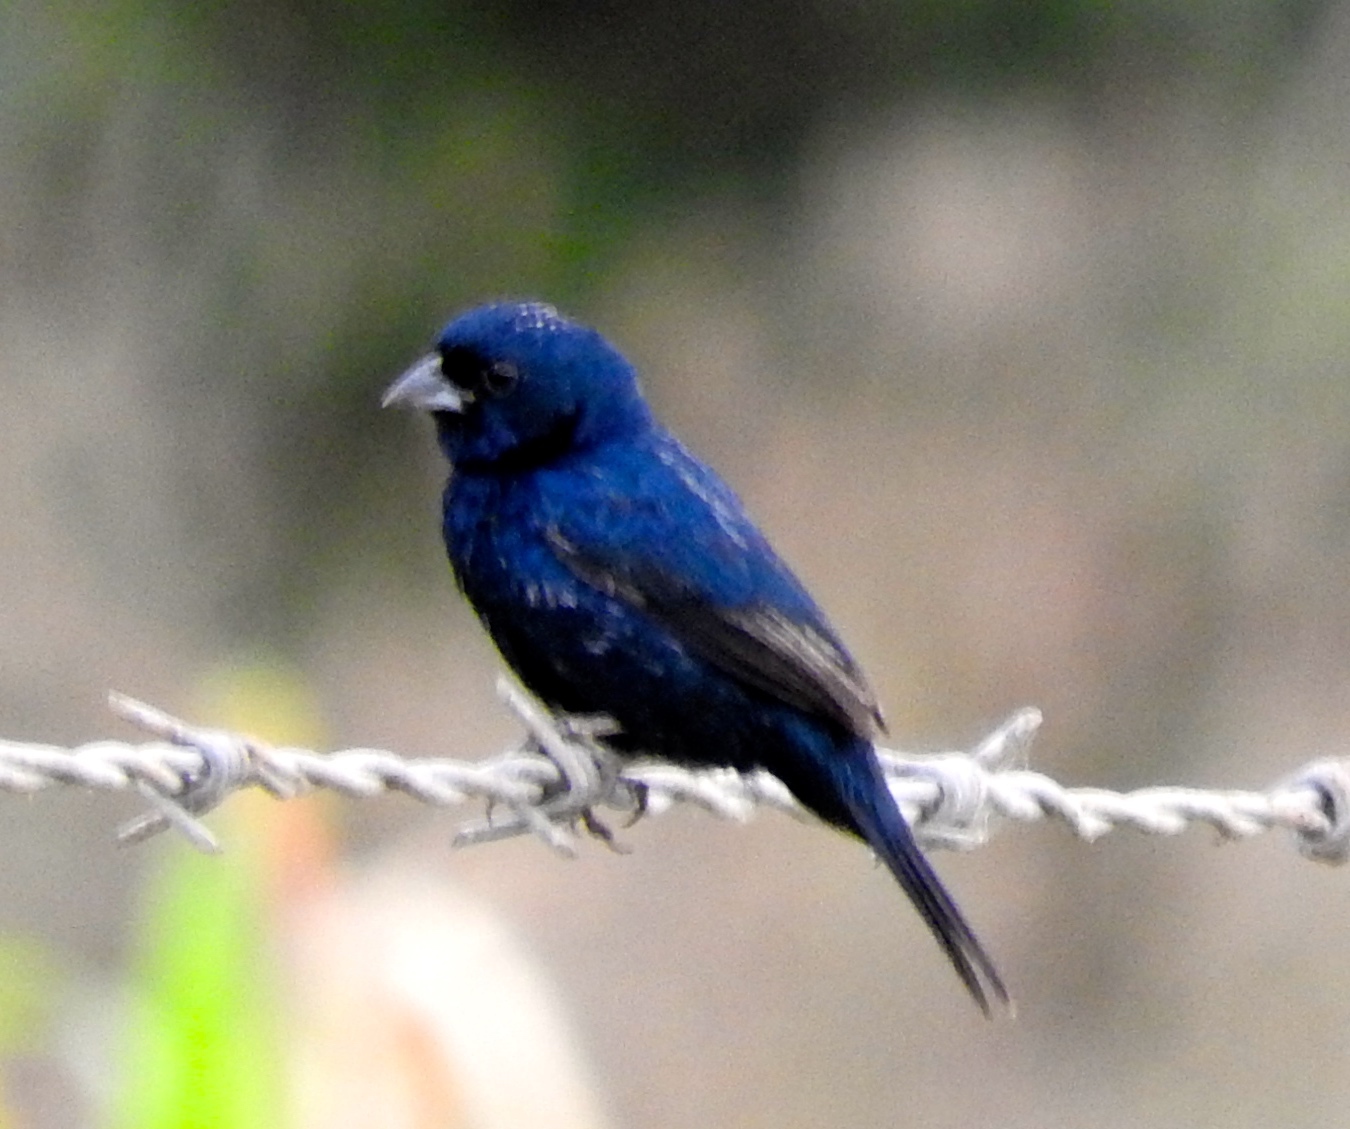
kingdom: Animalia
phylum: Chordata
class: Aves
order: Passeriformes
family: Thraupidae
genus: Volatinia
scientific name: Volatinia jacarina
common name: Blue-black grassquit
